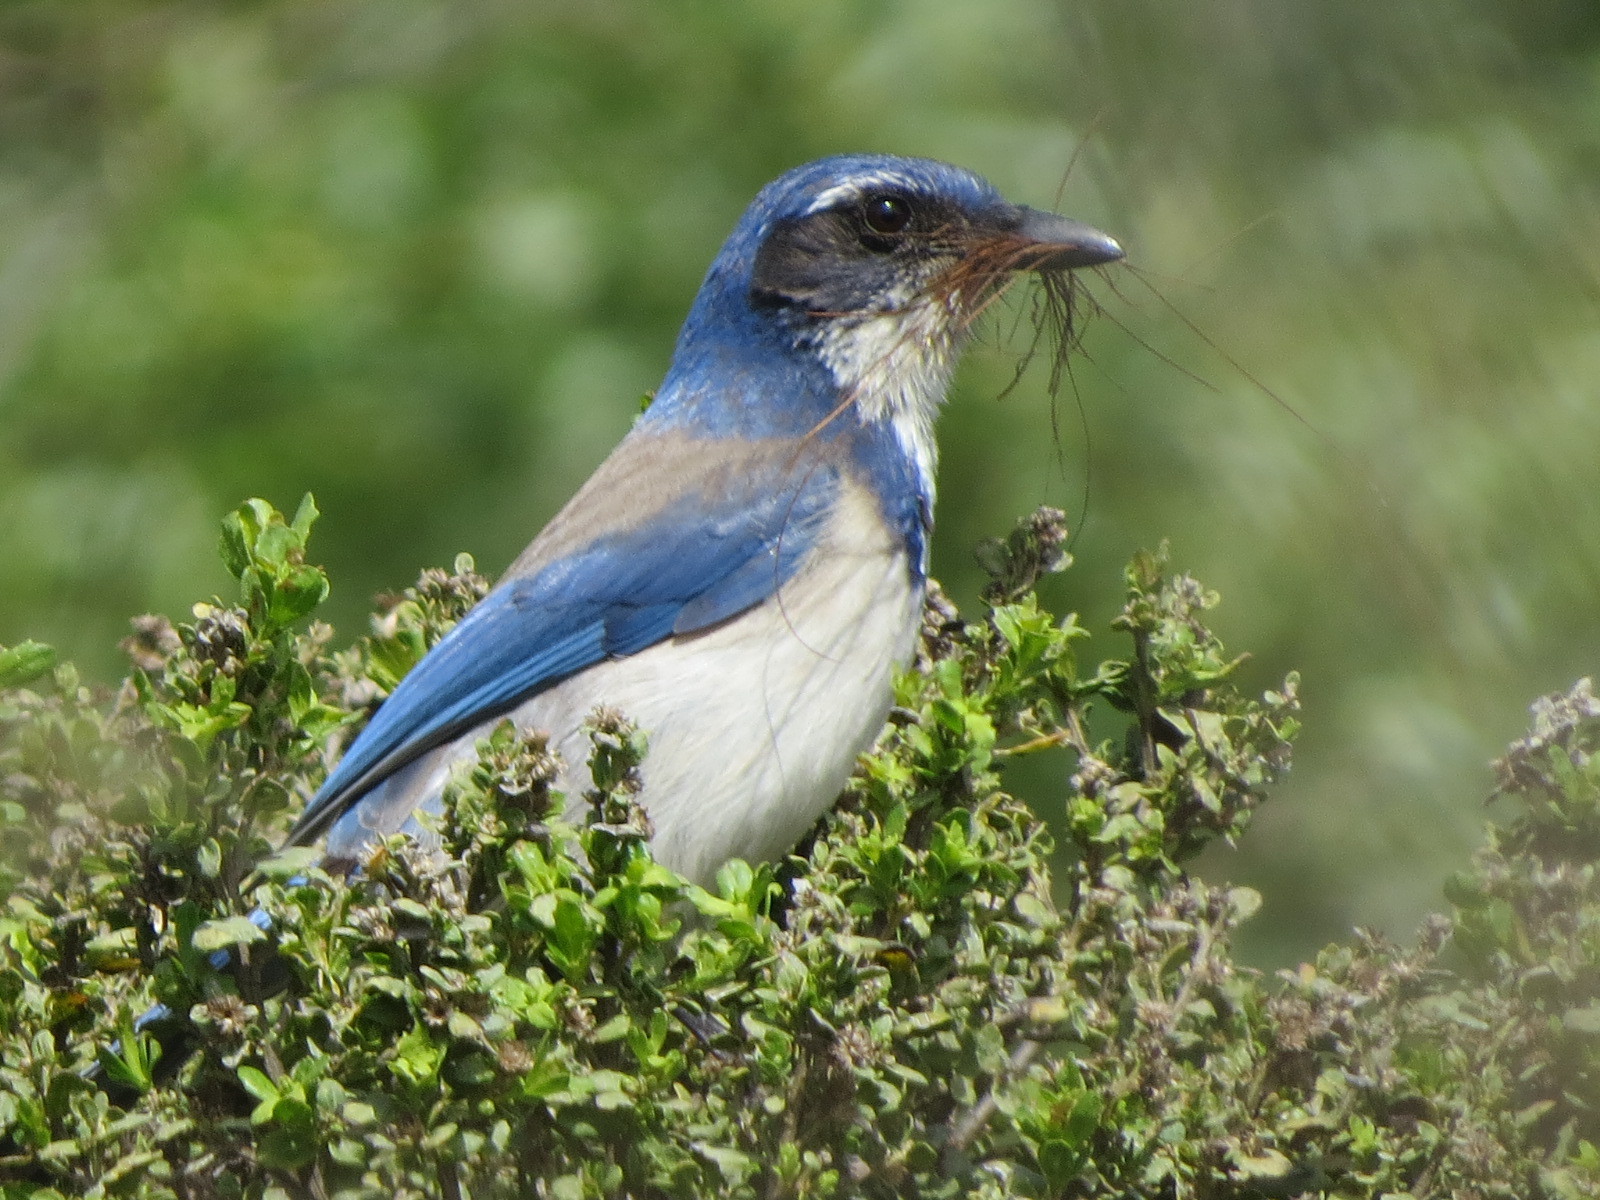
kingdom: Animalia
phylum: Chordata
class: Aves
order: Passeriformes
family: Corvidae
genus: Aphelocoma
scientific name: Aphelocoma californica
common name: California scrub-jay
